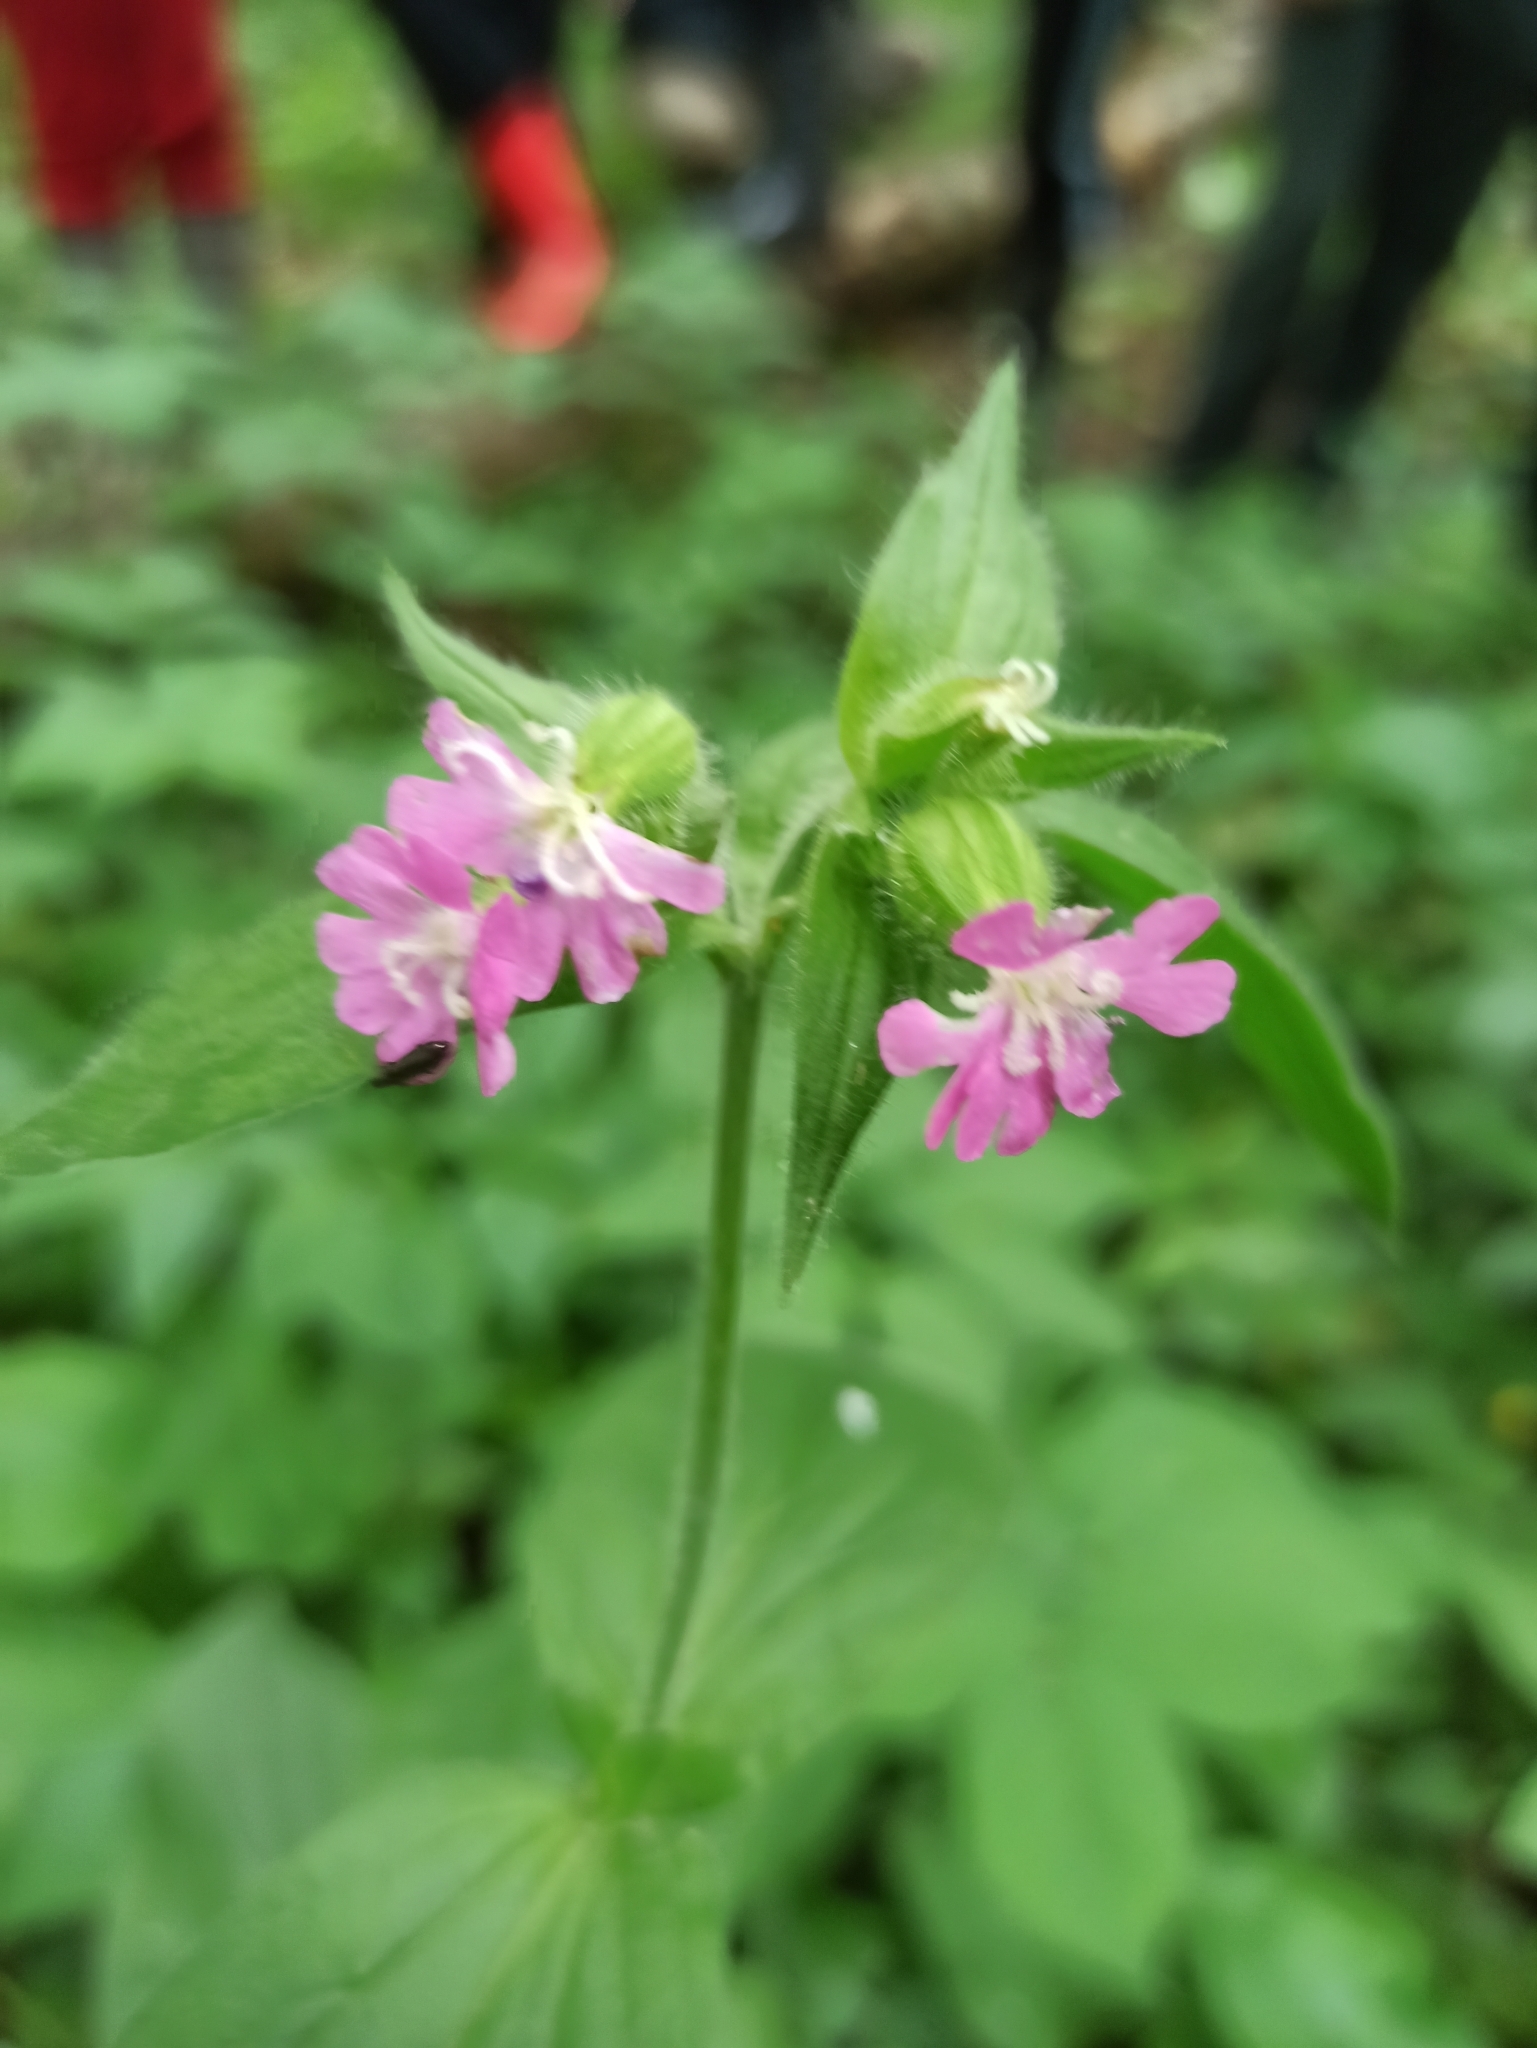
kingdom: Plantae
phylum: Tracheophyta
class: Magnoliopsida
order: Caryophyllales
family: Caryophyllaceae
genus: Silene
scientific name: Silene dioica
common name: Red campion
